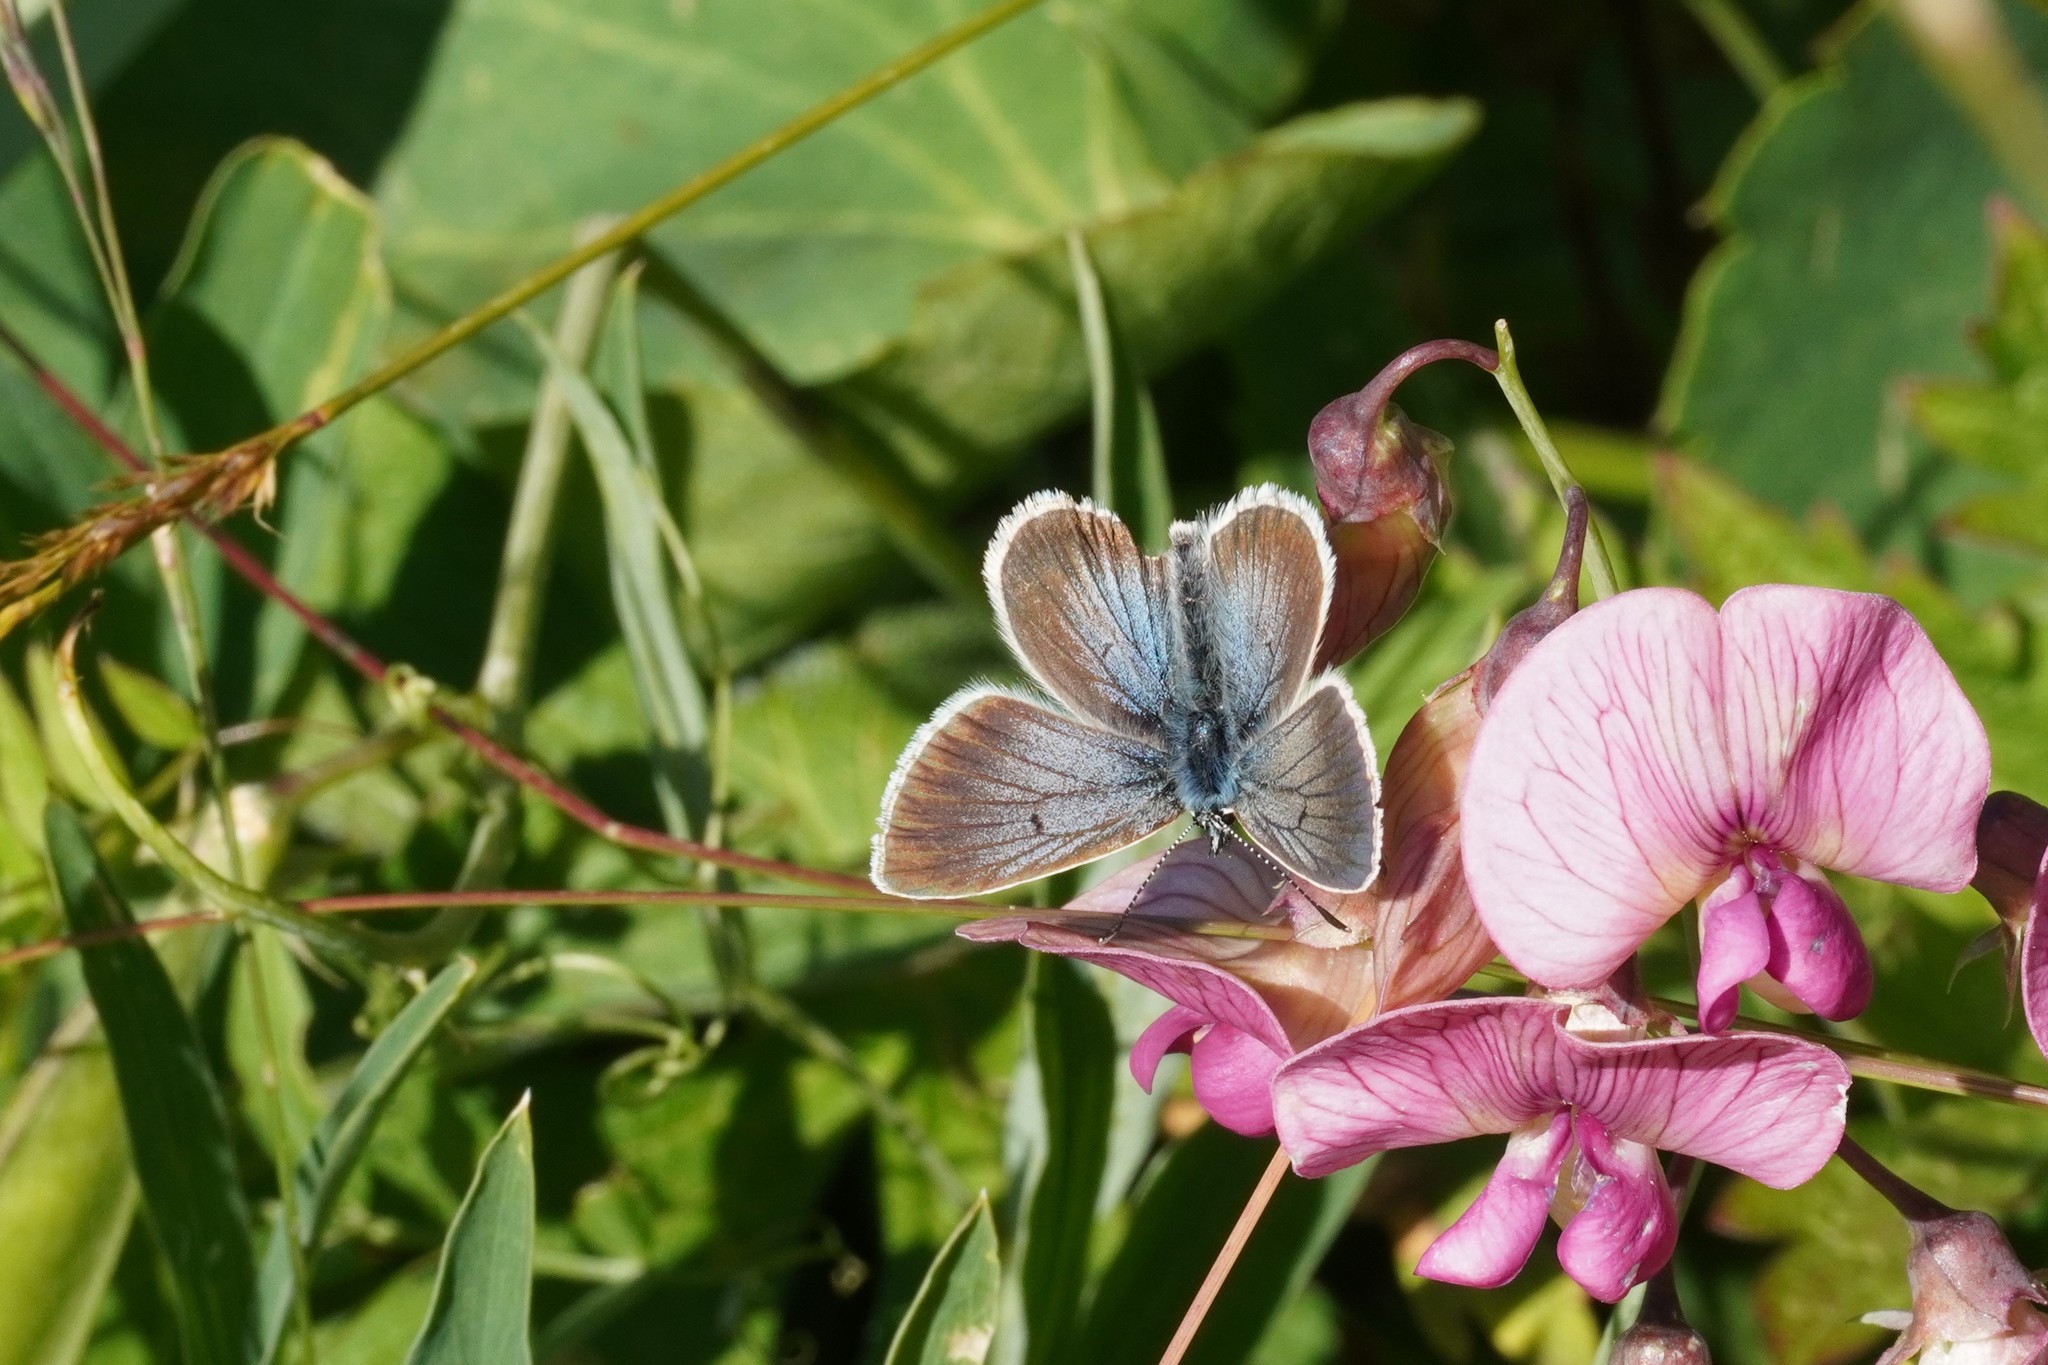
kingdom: Animalia
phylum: Arthropoda
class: Insecta
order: Lepidoptera
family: Lycaenidae
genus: Pseudoaricia
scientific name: Pseudoaricia nicias
